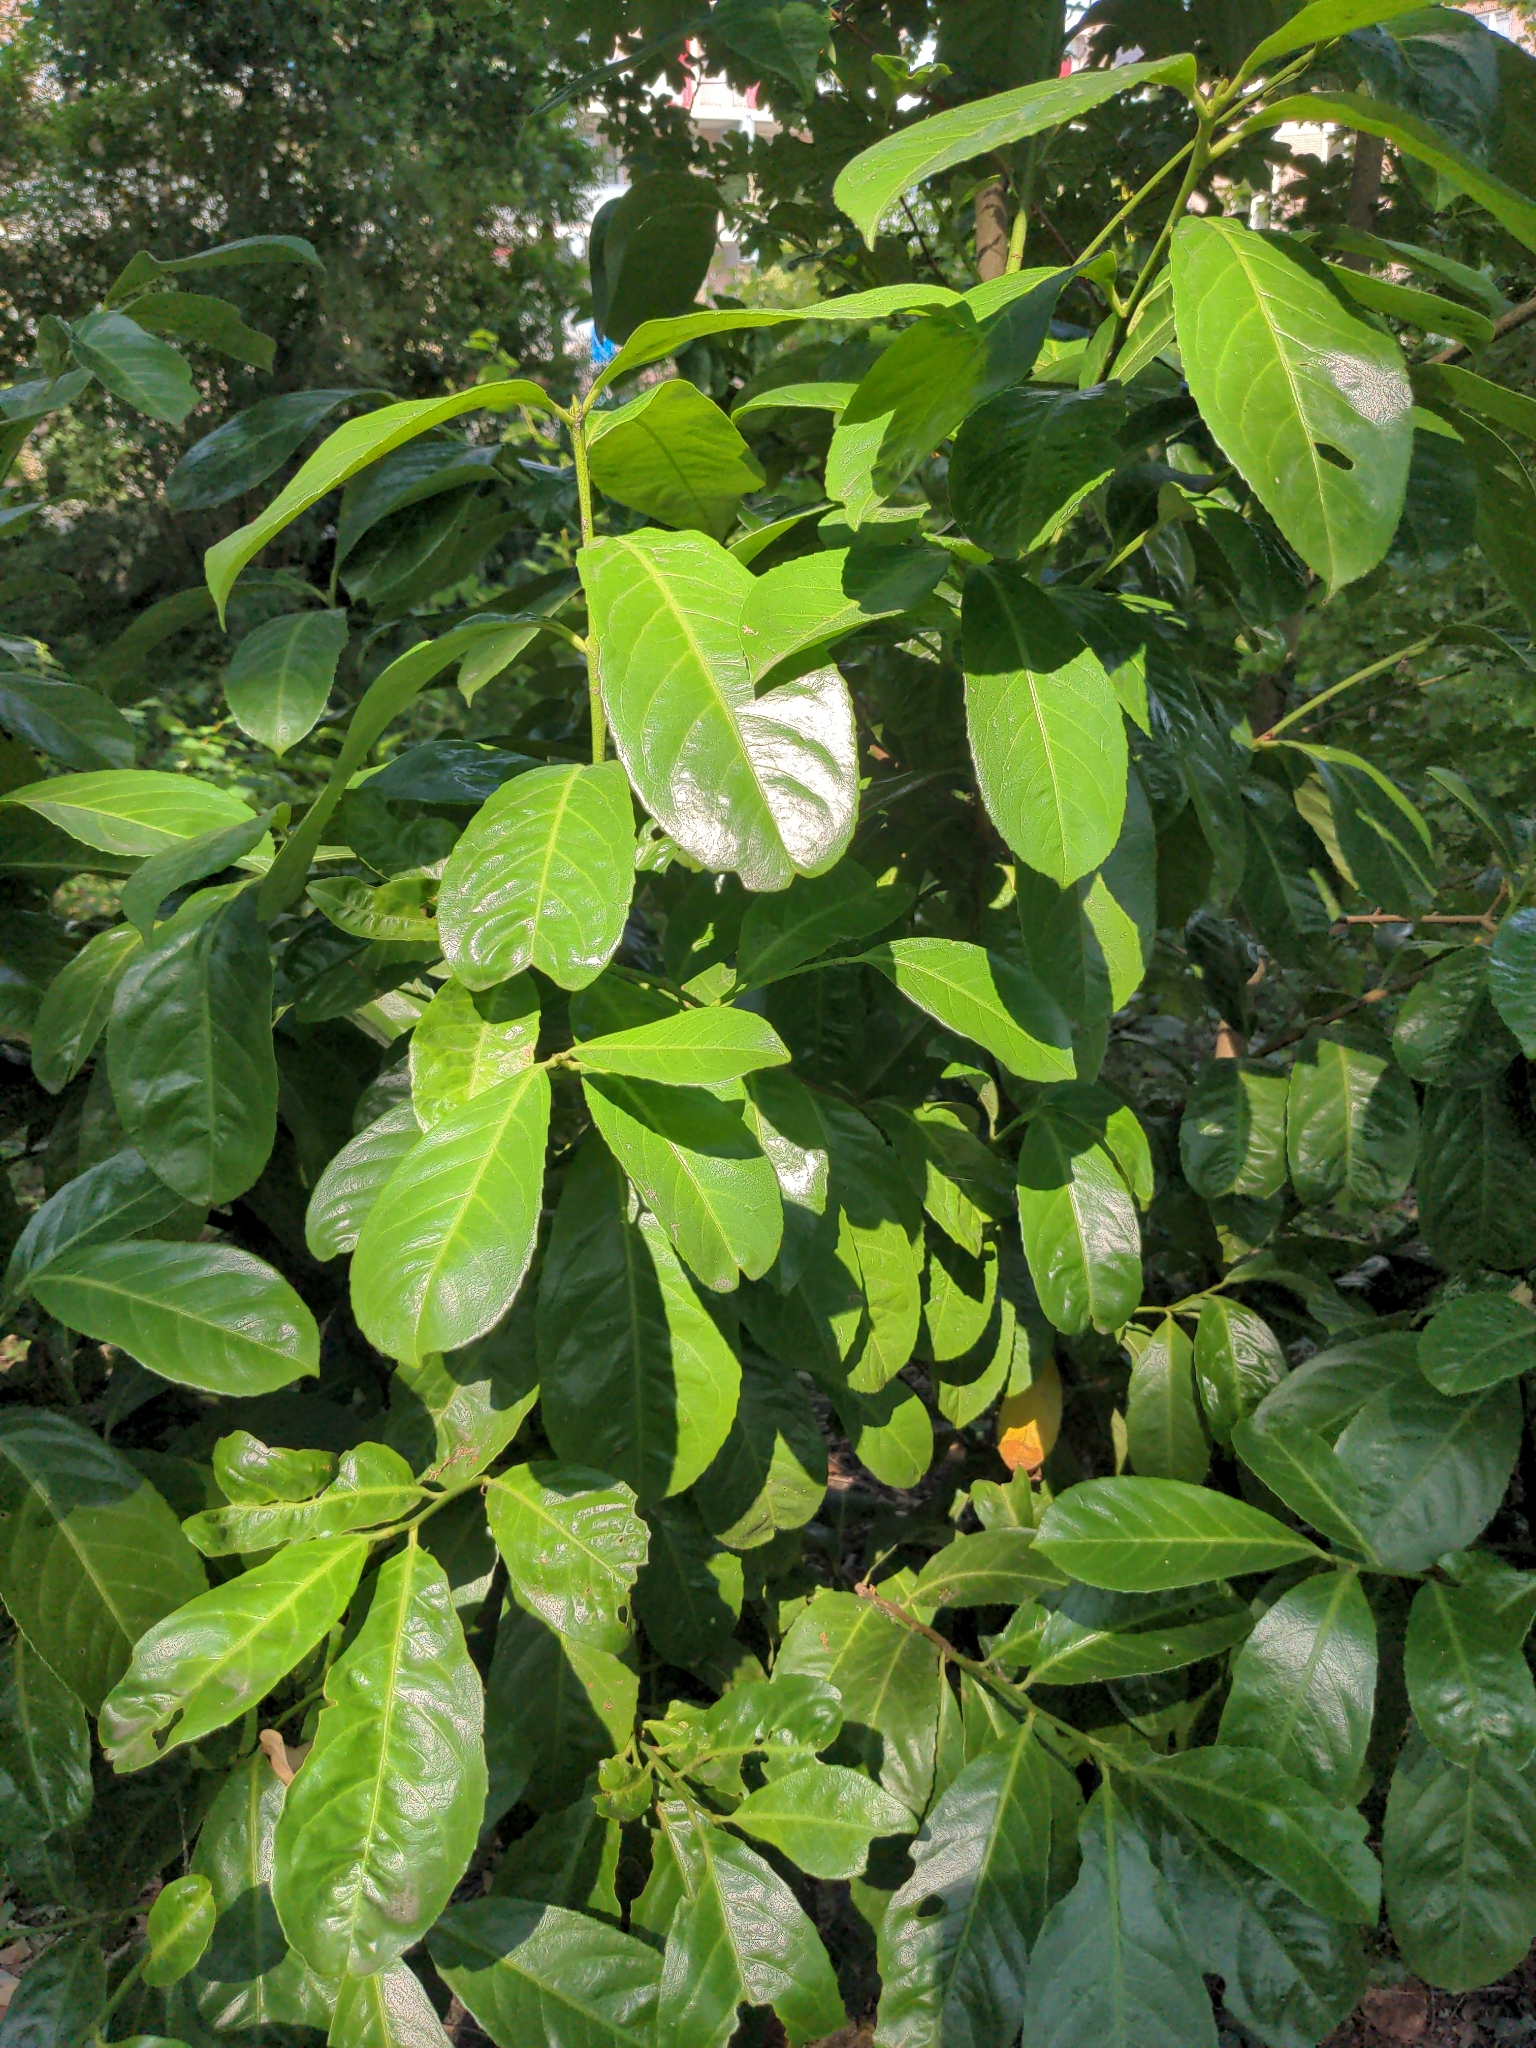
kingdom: Plantae
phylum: Tracheophyta
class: Magnoliopsida
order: Rosales
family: Rosaceae
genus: Prunus
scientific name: Prunus laurocerasus
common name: Cherry laurel
